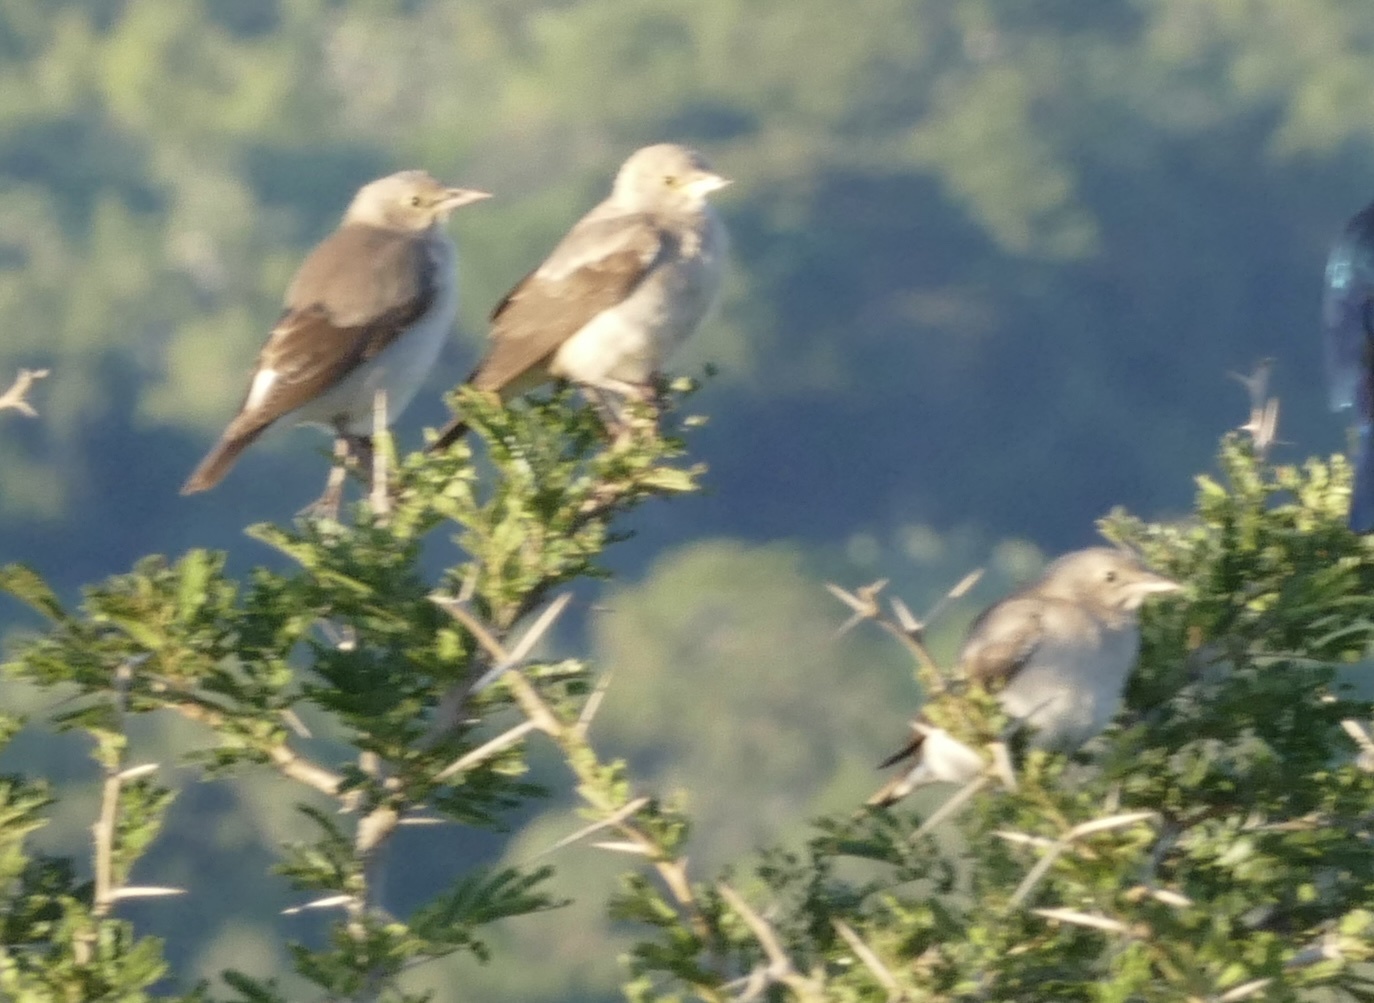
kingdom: Animalia
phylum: Chordata
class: Aves
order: Passeriformes
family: Sturnidae
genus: Creatophora
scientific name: Creatophora cinerea
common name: Wattled starling
